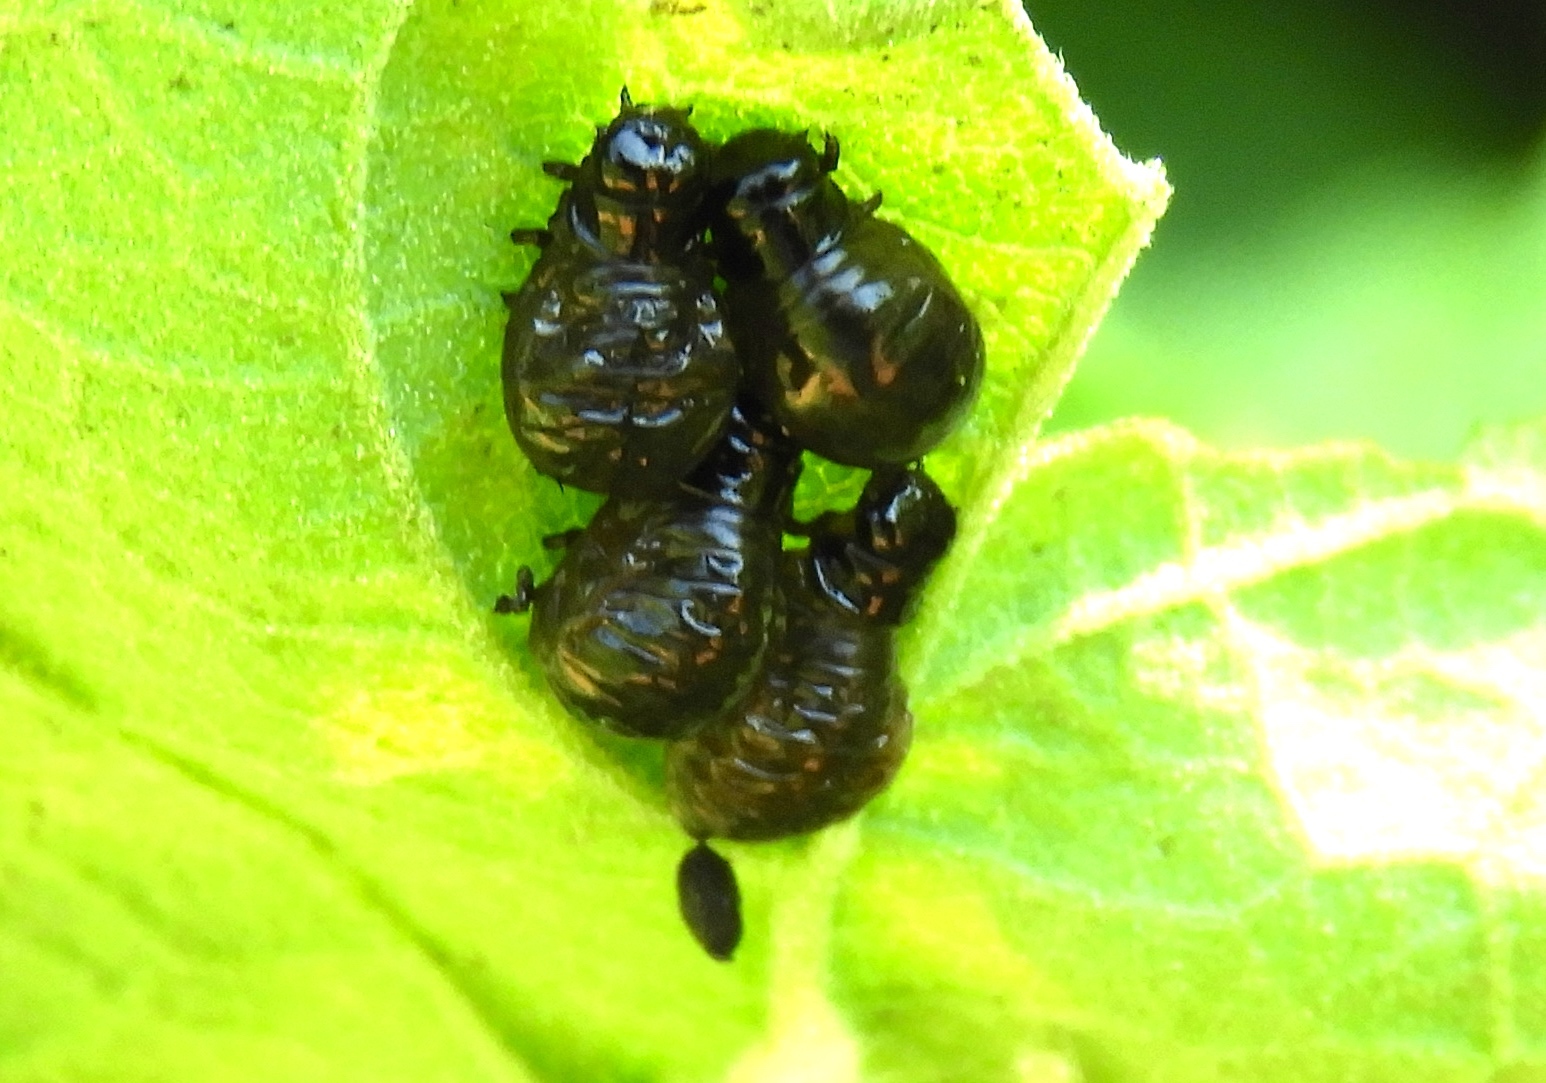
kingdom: Animalia
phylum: Arthropoda
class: Insecta
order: Coleoptera
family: Chrysomelinae
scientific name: Chrysomelinae
